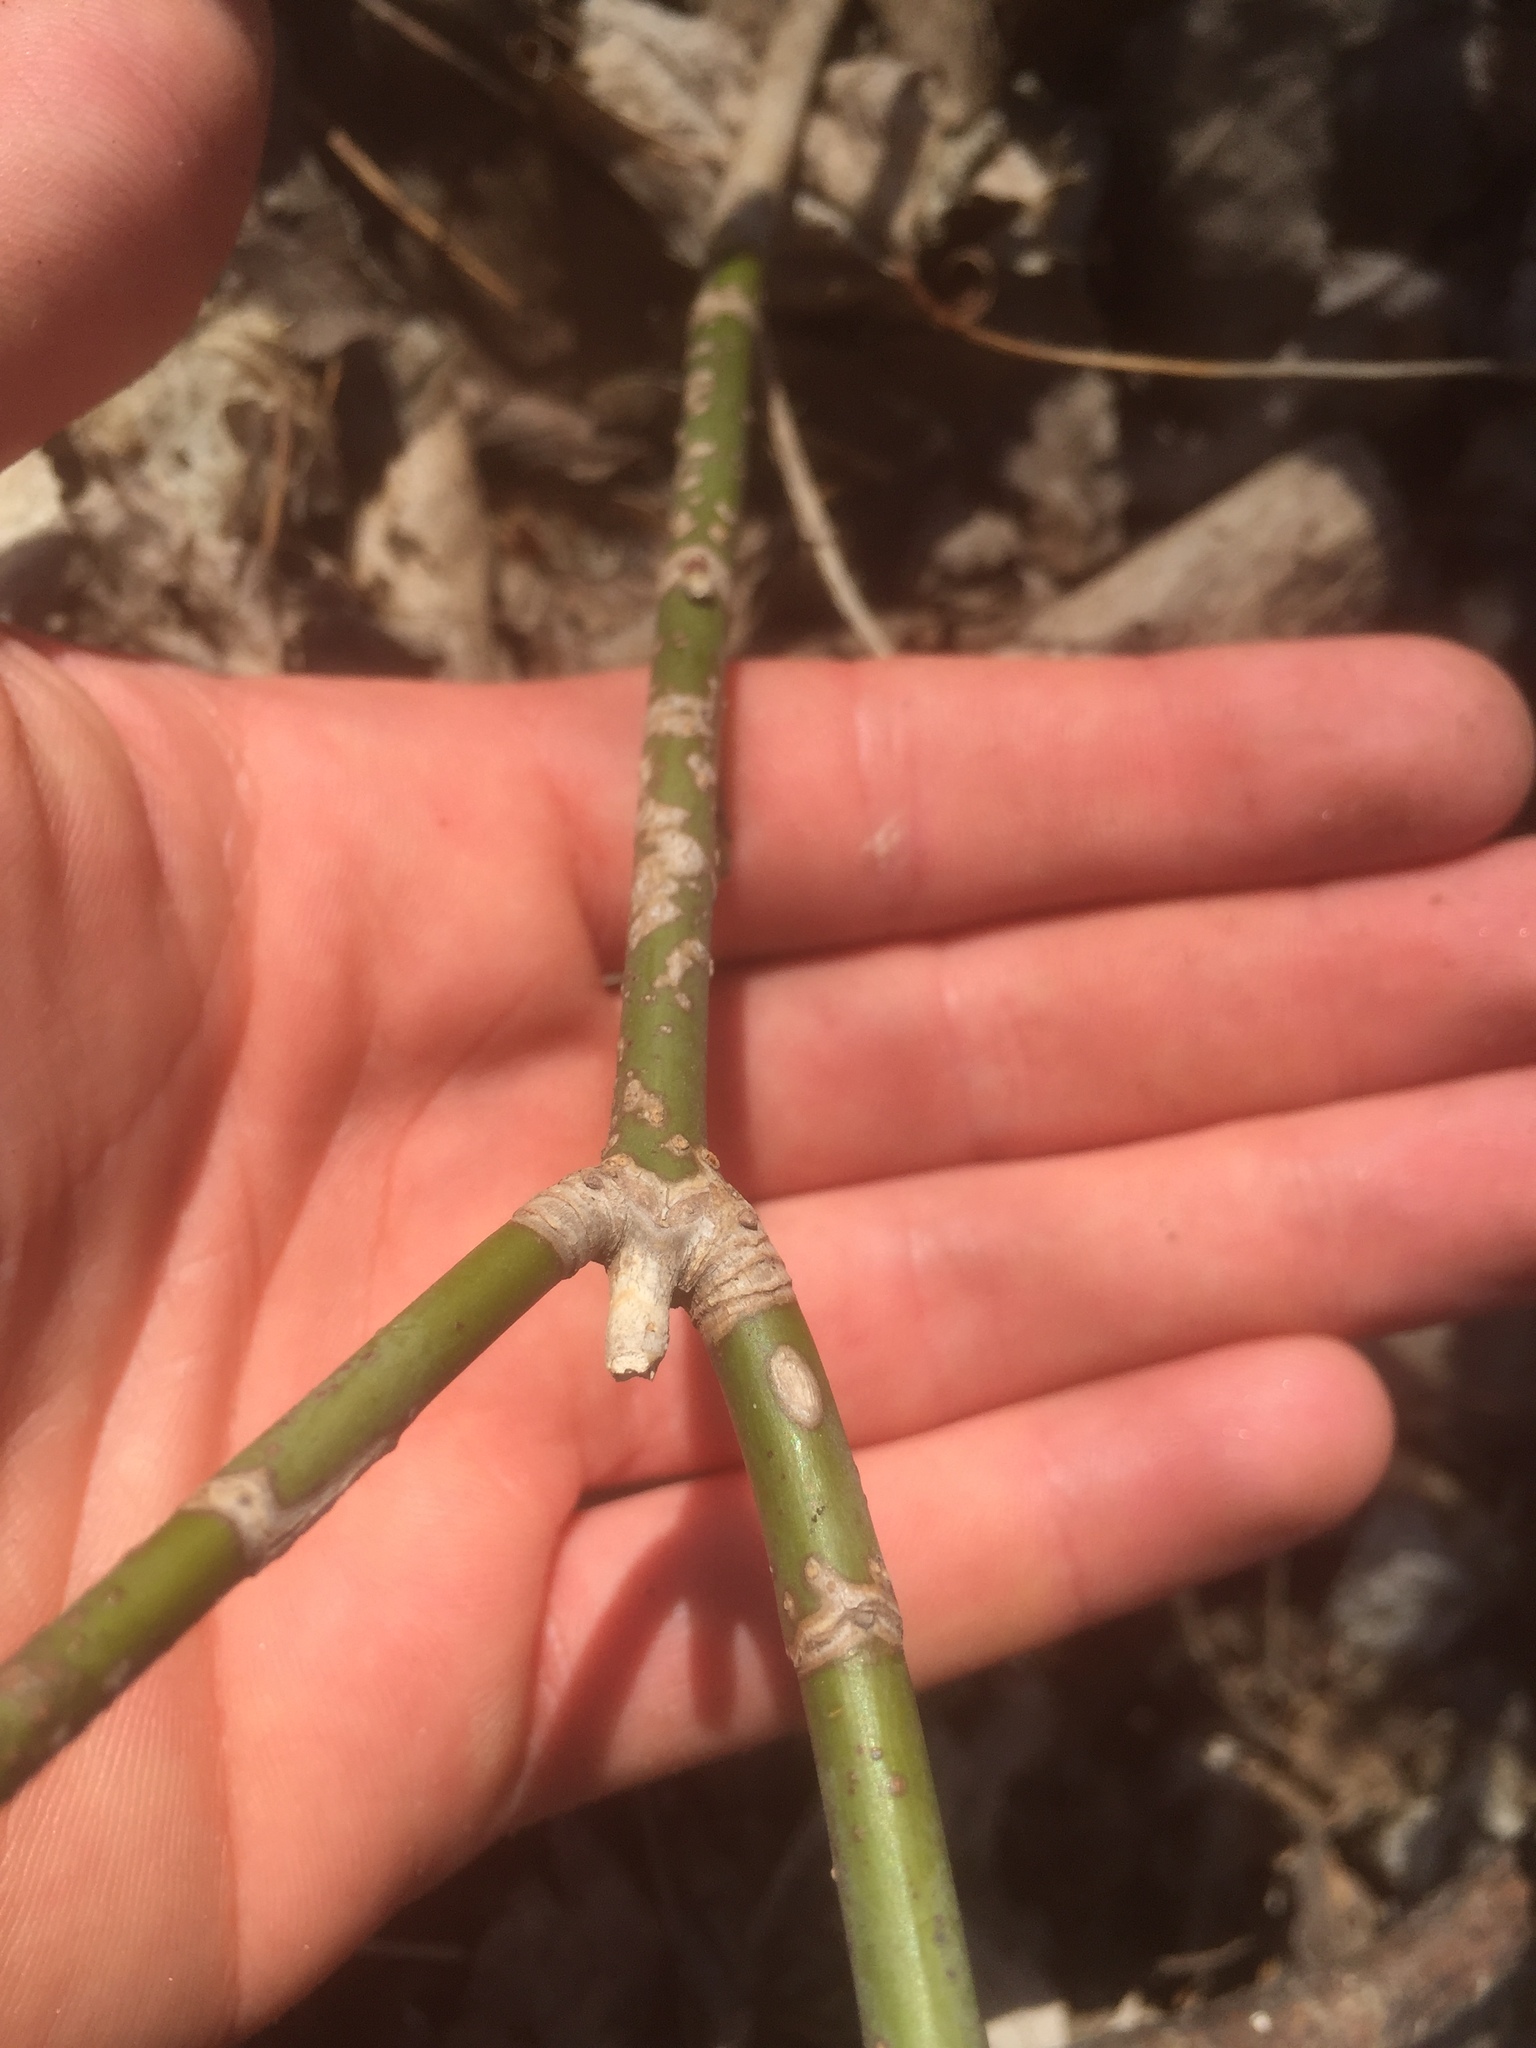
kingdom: Plantae
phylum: Tracheophyta
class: Magnoliopsida
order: Sapindales
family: Sapindaceae
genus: Acer
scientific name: Acer negundo
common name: Ashleaf maple
